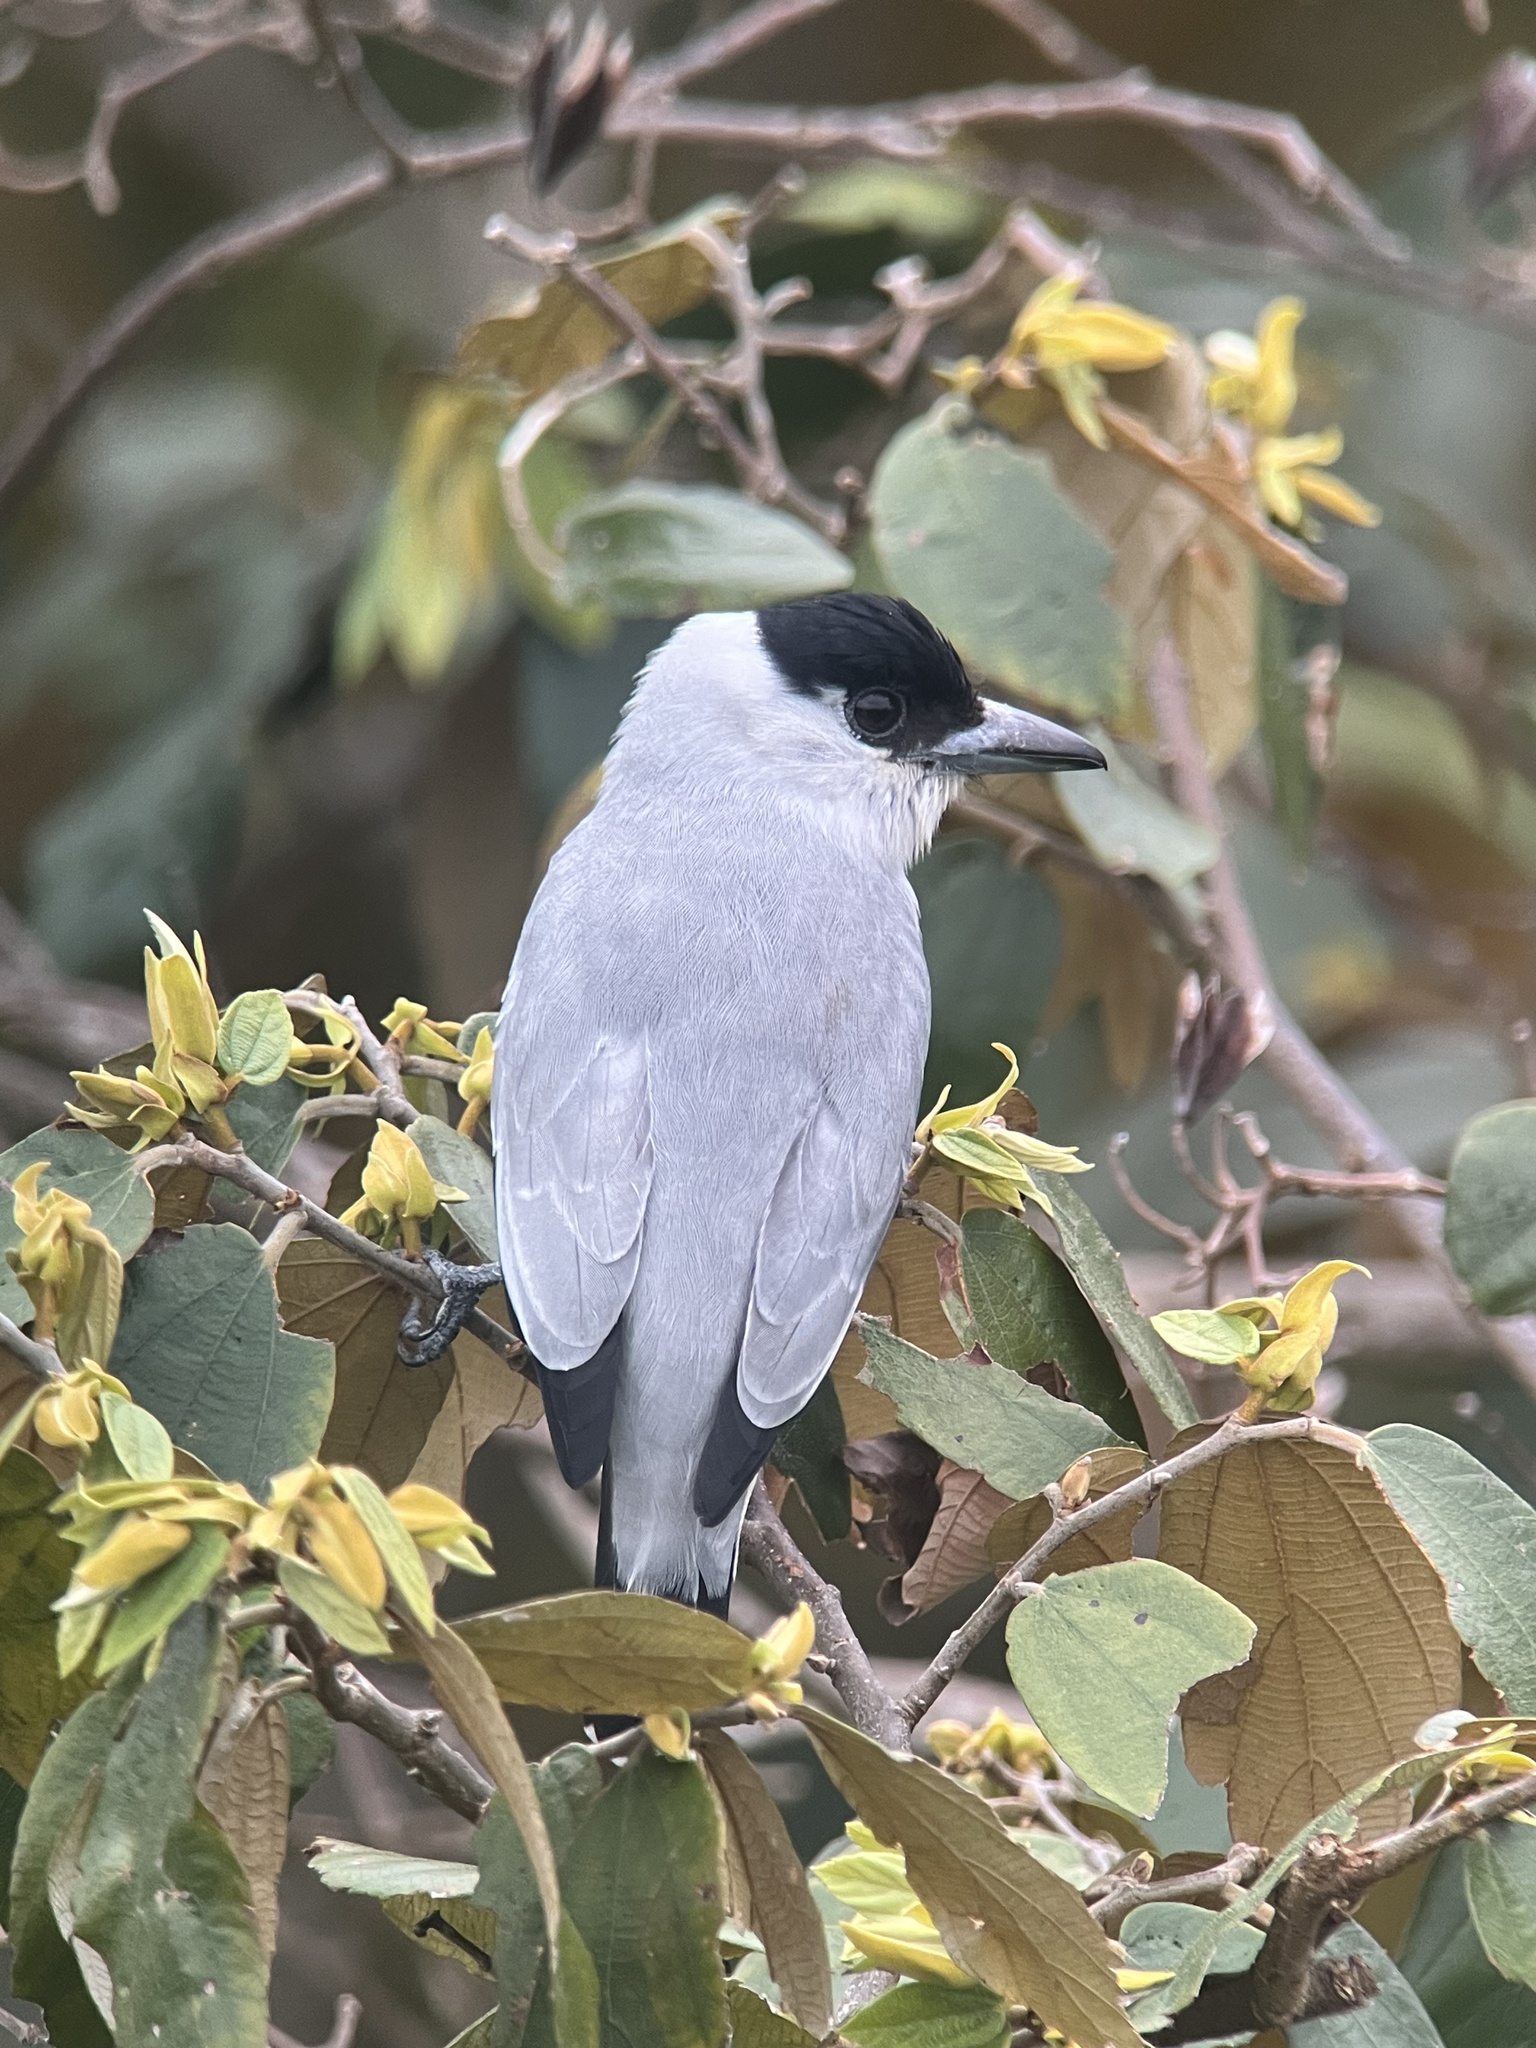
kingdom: Animalia
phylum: Chordata
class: Aves
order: Passeriformes
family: Cotingidae
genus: Tityra
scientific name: Tityra inquisitor
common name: Black-crowned tityra
